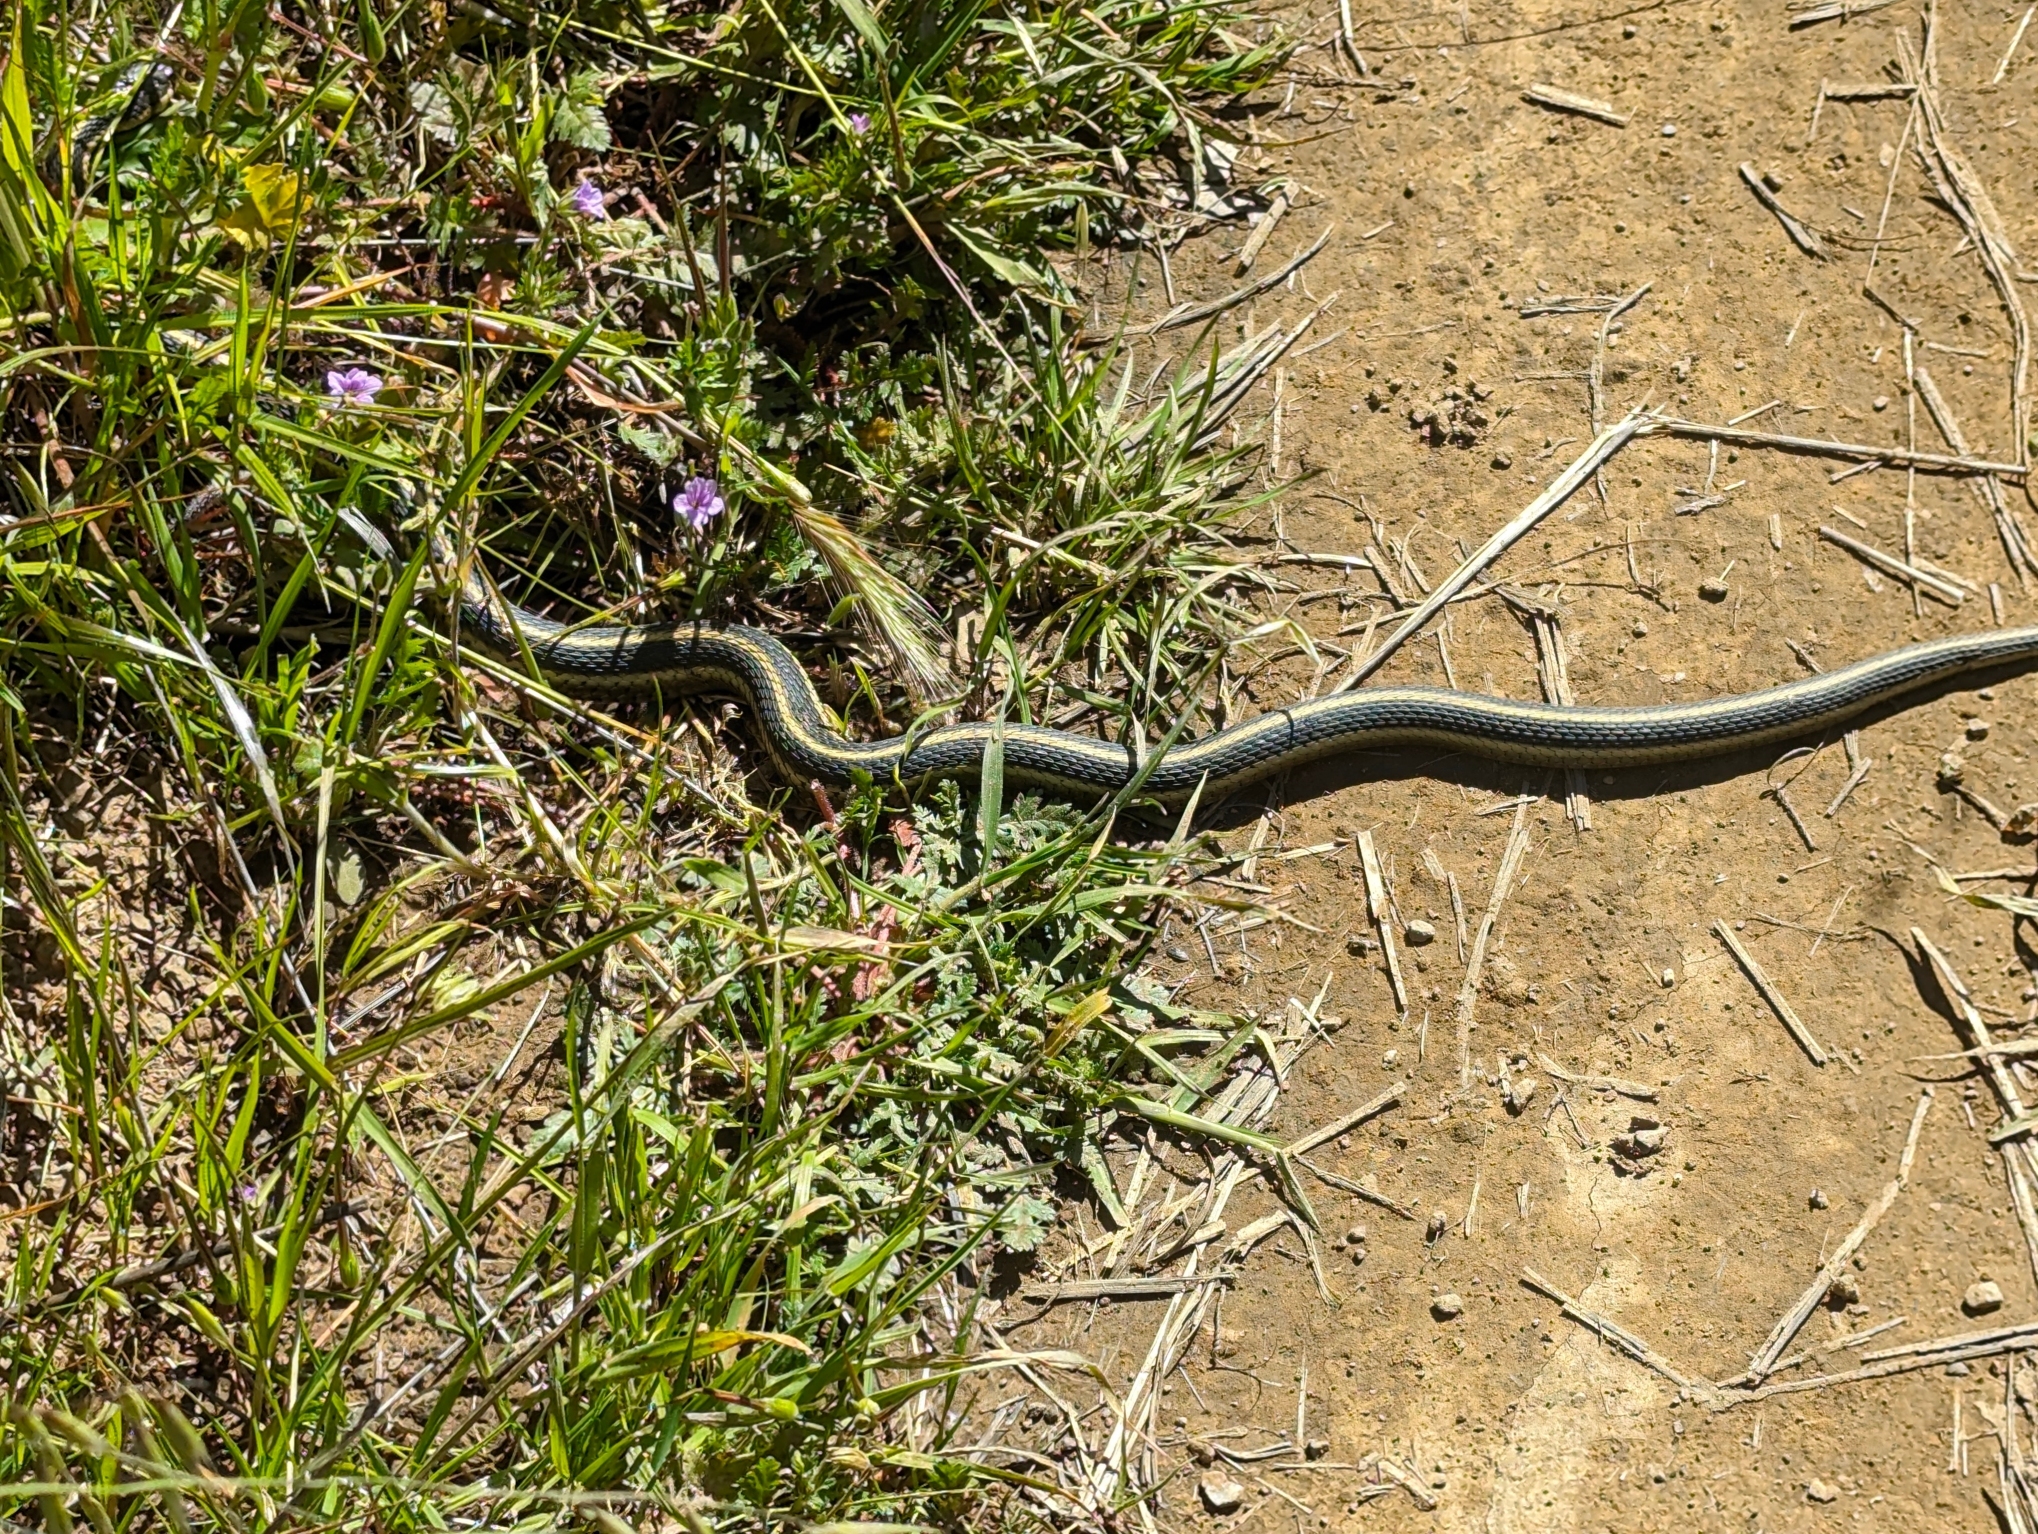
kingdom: Animalia
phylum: Chordata
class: Squamata
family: Colubridae
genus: Thamnophis
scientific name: Thamnophis atratus
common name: Pacific coast aquatic garter snake
